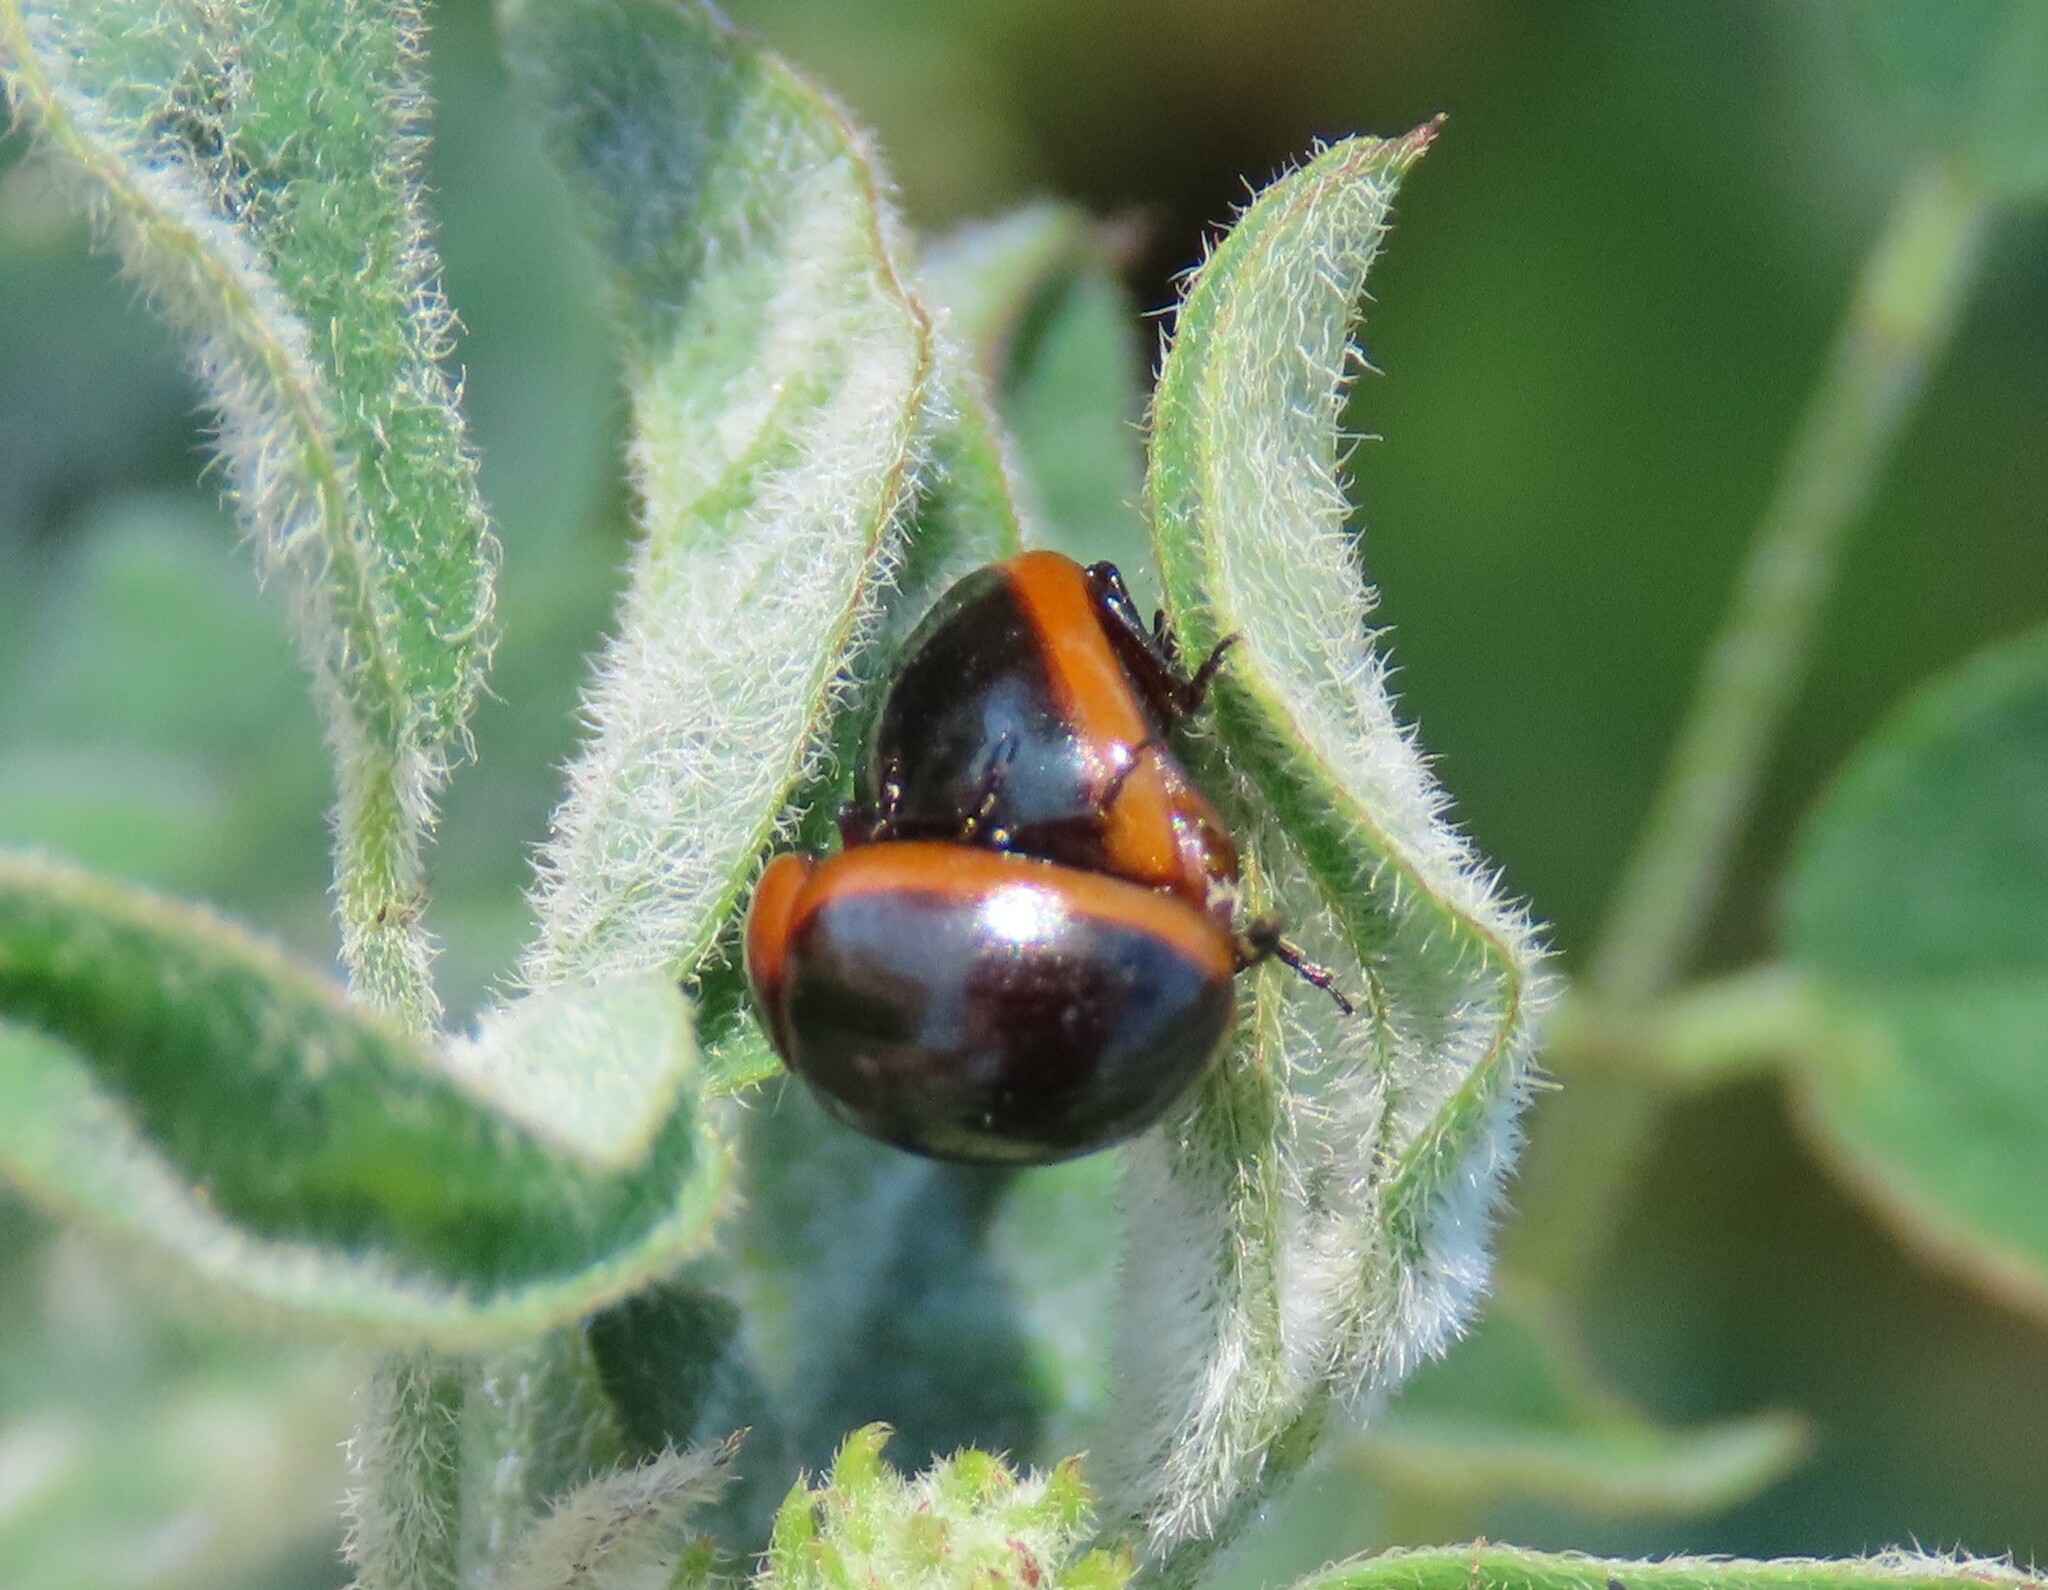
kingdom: Animalia
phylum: Arthropoda
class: Insecta
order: Coleoptera
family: Chrysomelidae
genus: Mesoplatys
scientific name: Mesoplatys
